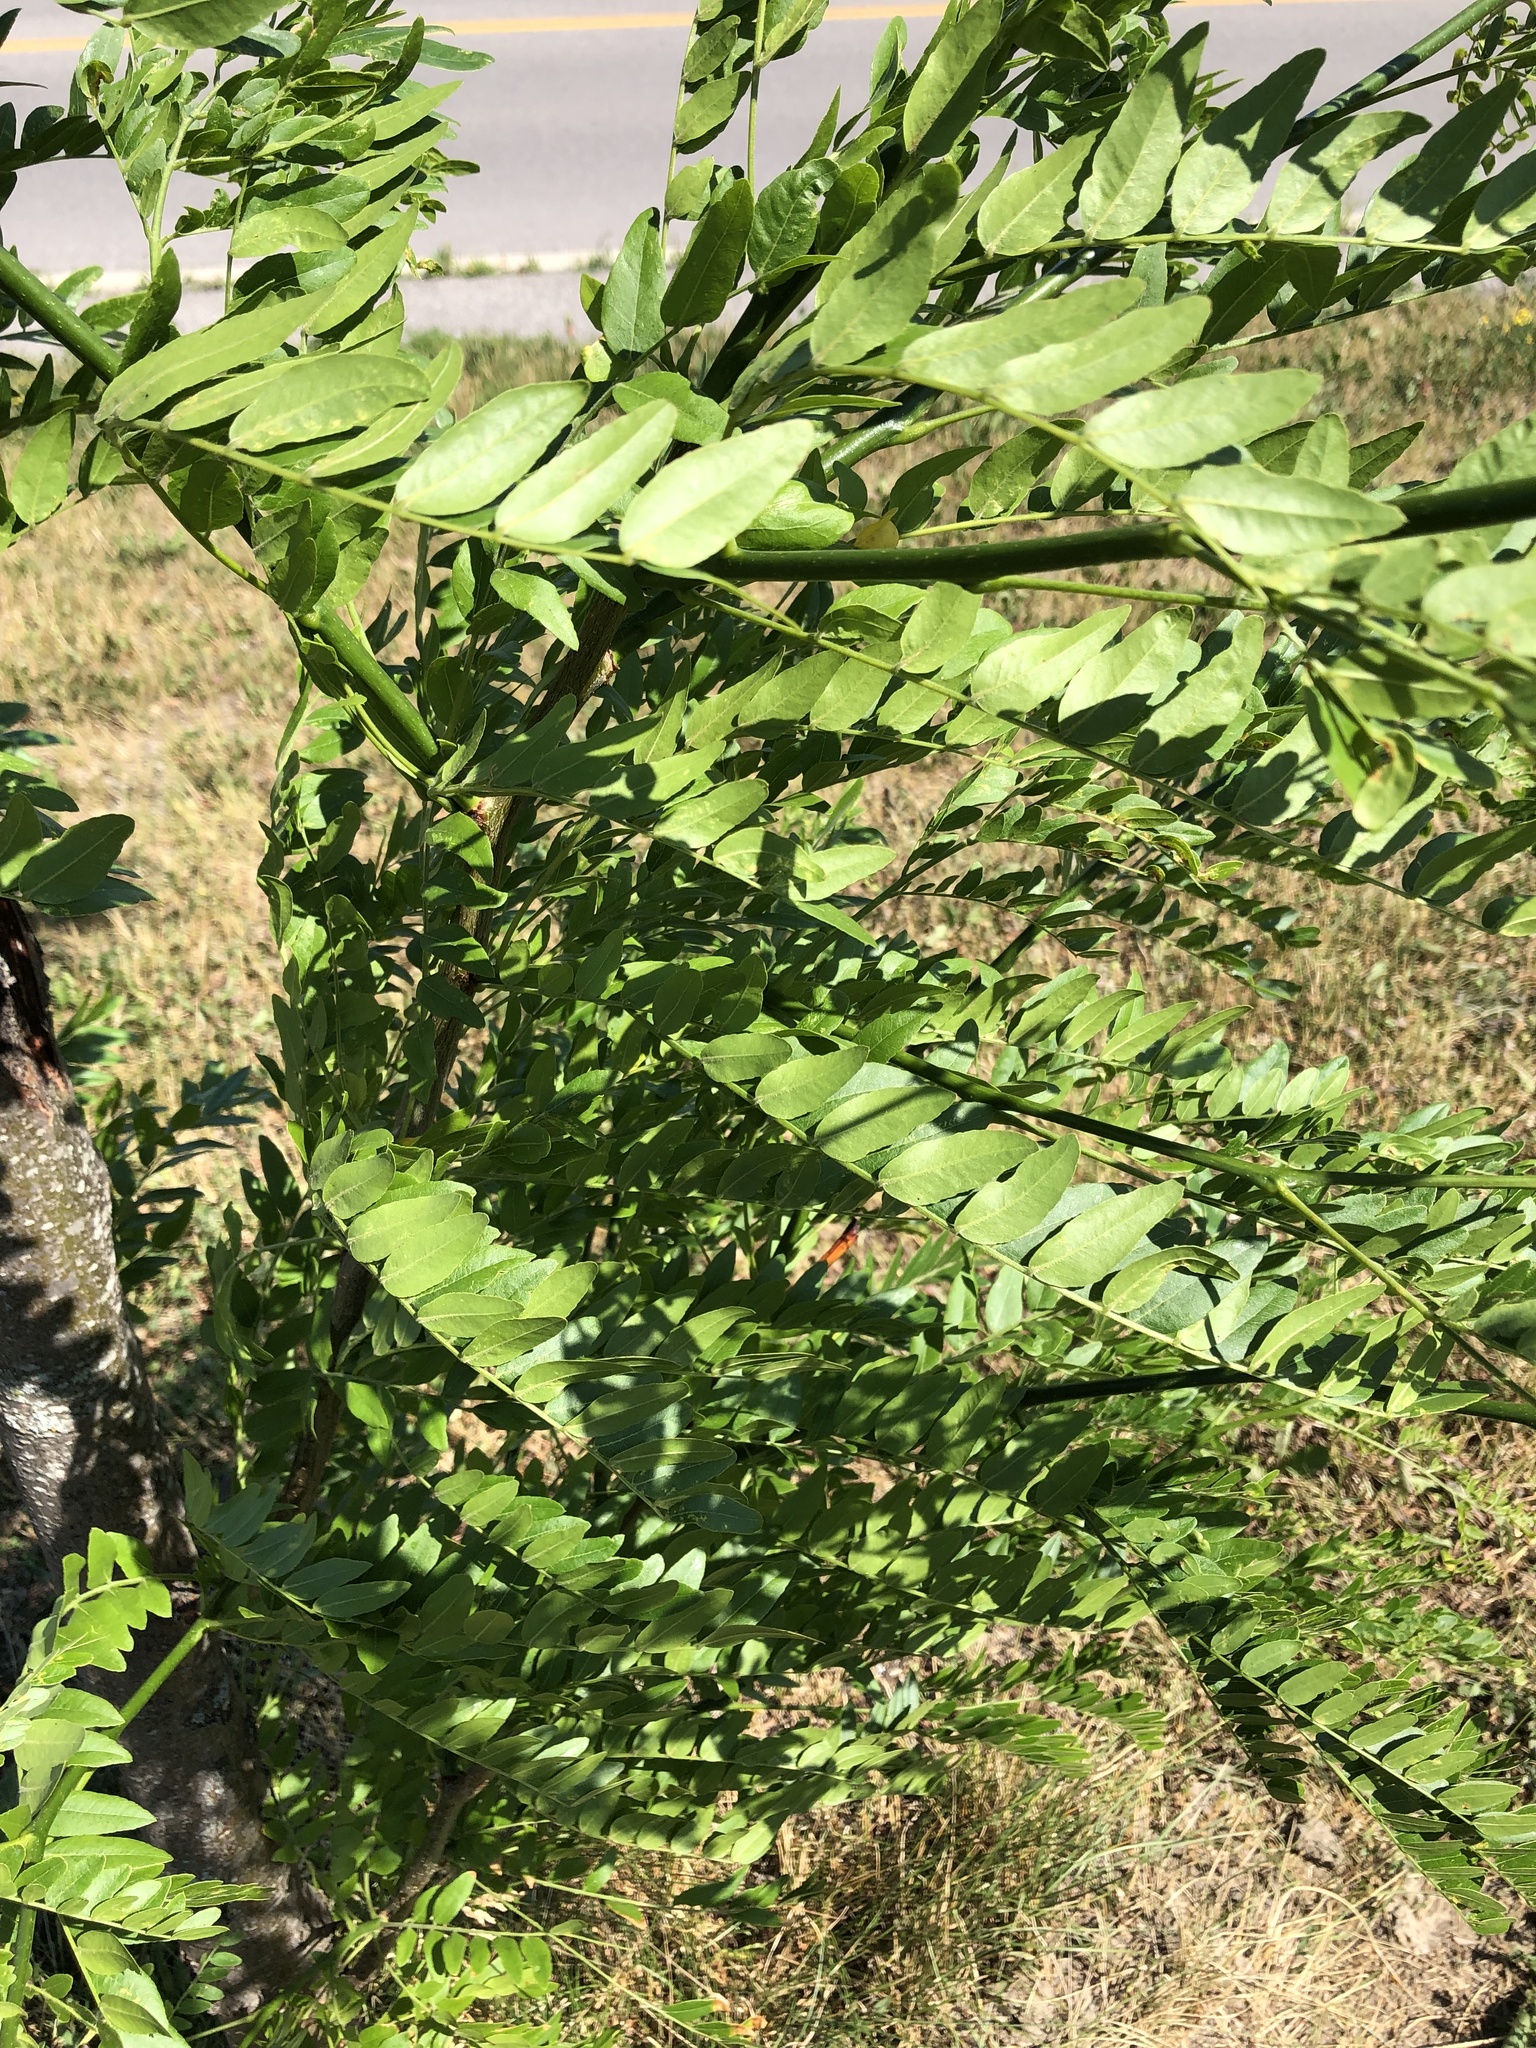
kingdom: Plantae
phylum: Tracheophyta
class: Magnoliopsida
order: Fabales
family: Fabaceae
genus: Gleditsia
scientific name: Gleditsia triacanthos
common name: Common honeylocust
